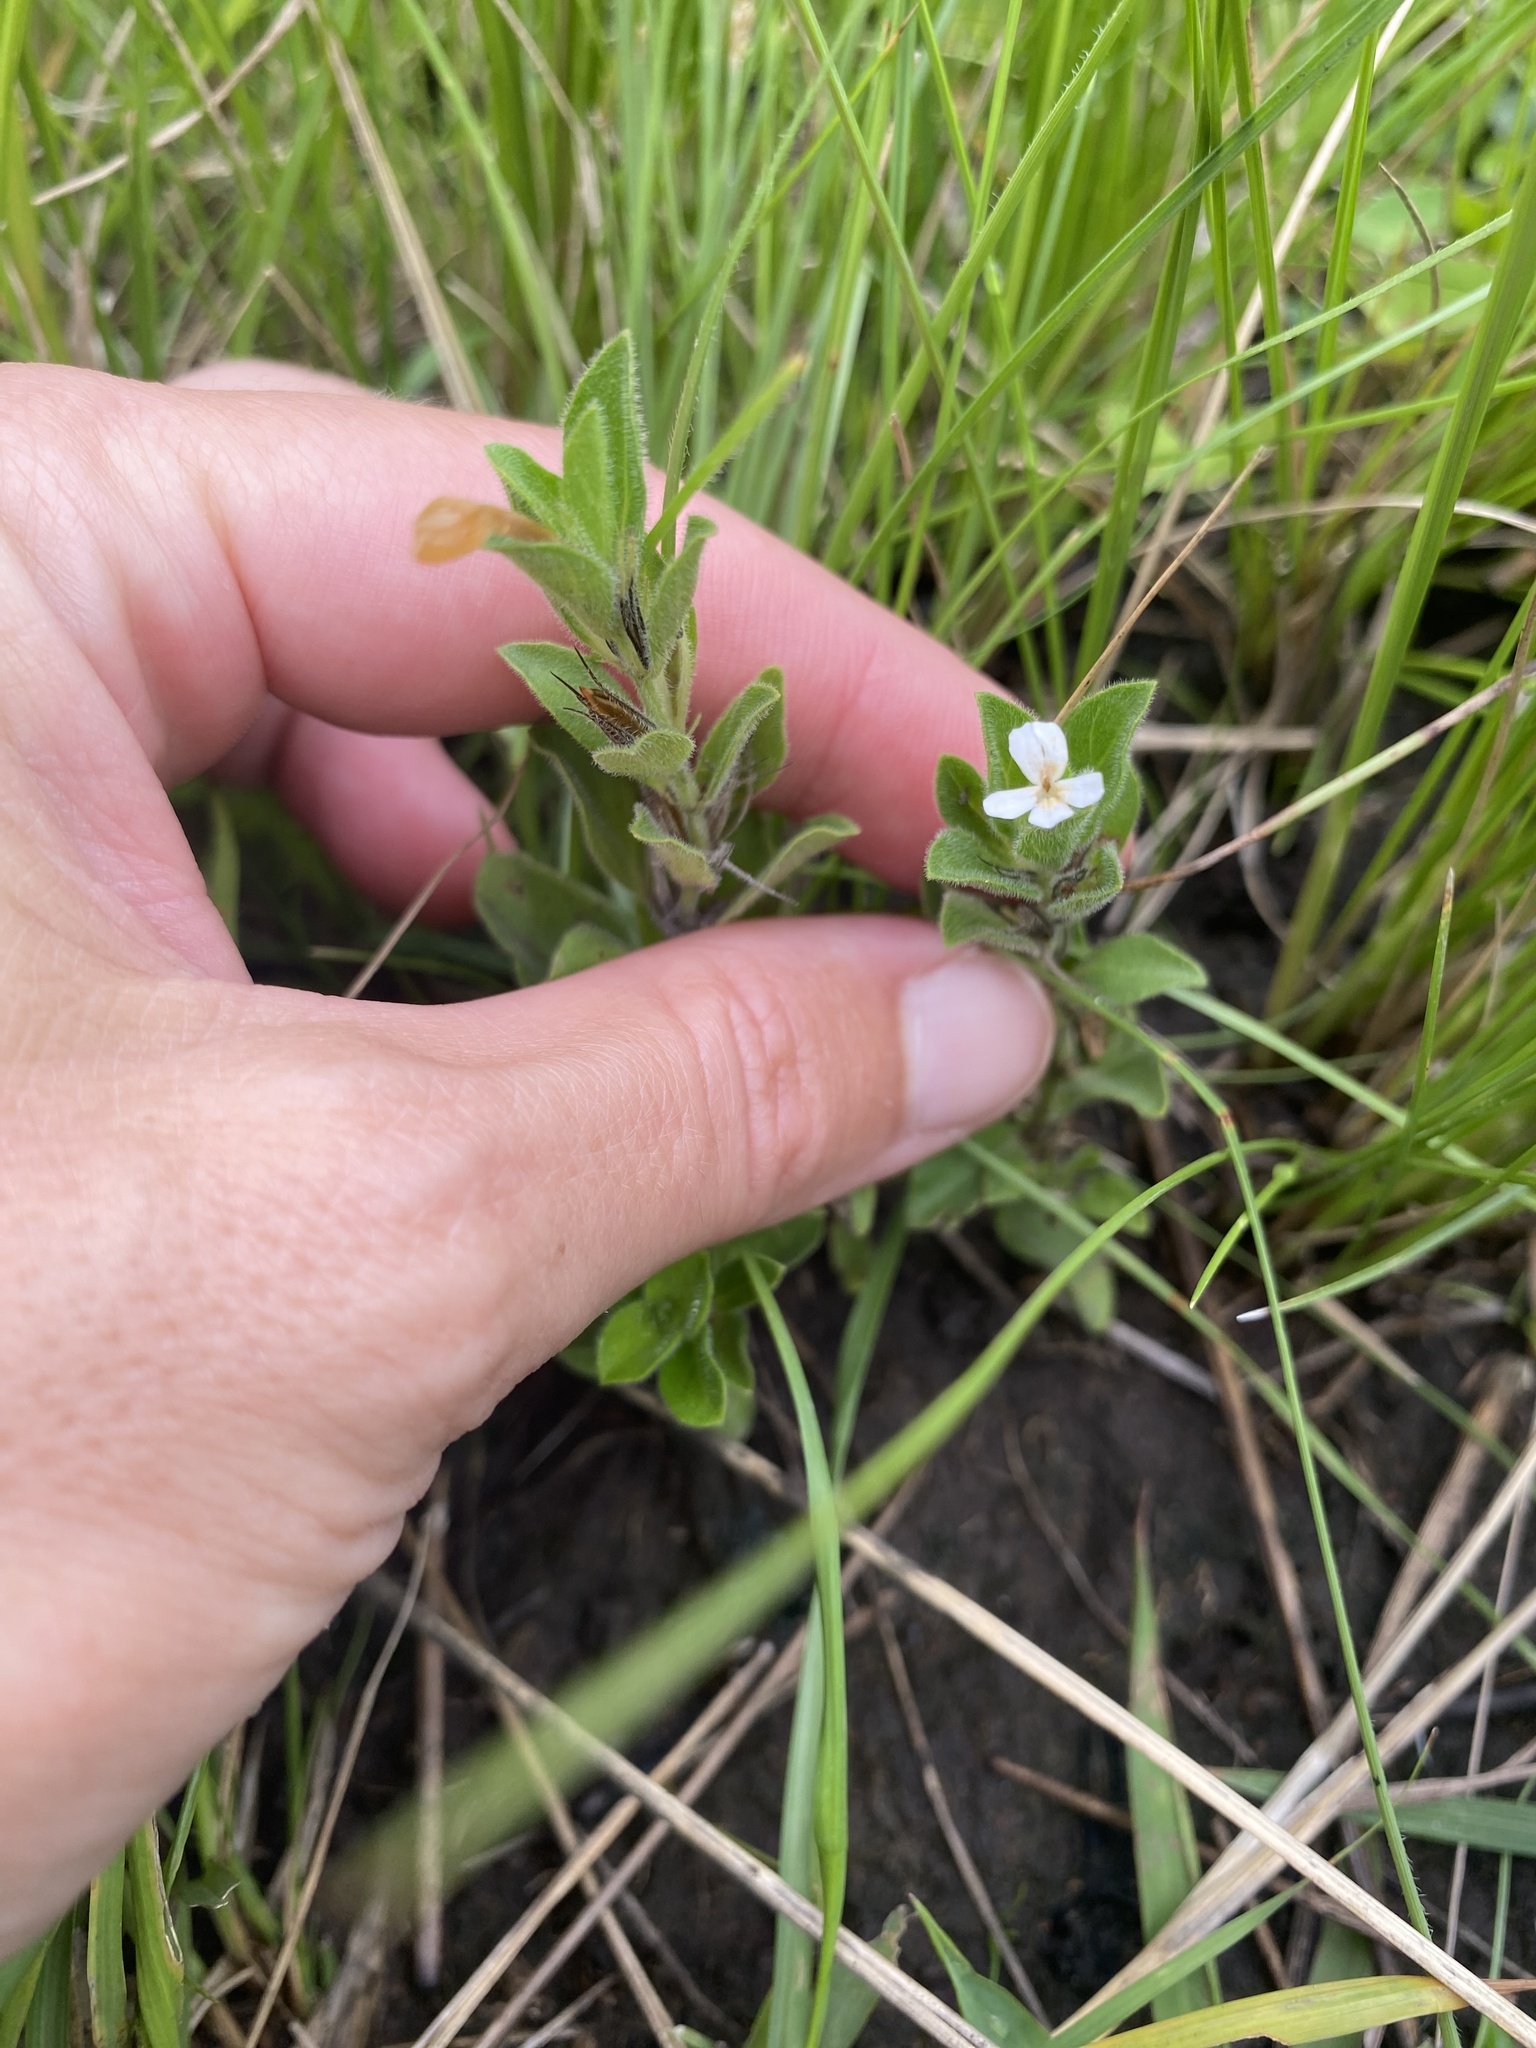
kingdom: Plantae
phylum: Tracheophyta
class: Magnoliopsida
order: Lamiales
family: Acanthaceae
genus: Dyschoriste
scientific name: Dyschoriste setigera
